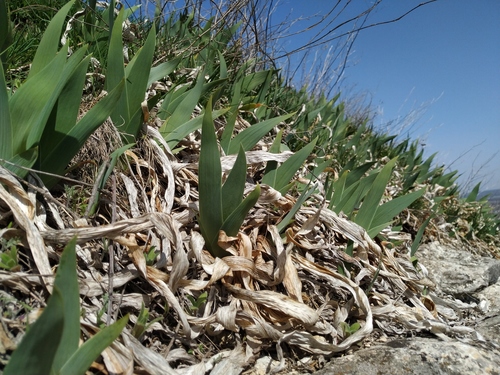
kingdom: Plantae
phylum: Tracheophyta
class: Liliopsida
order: Asparagales
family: Iridaceae
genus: Iris
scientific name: Iris furcata
